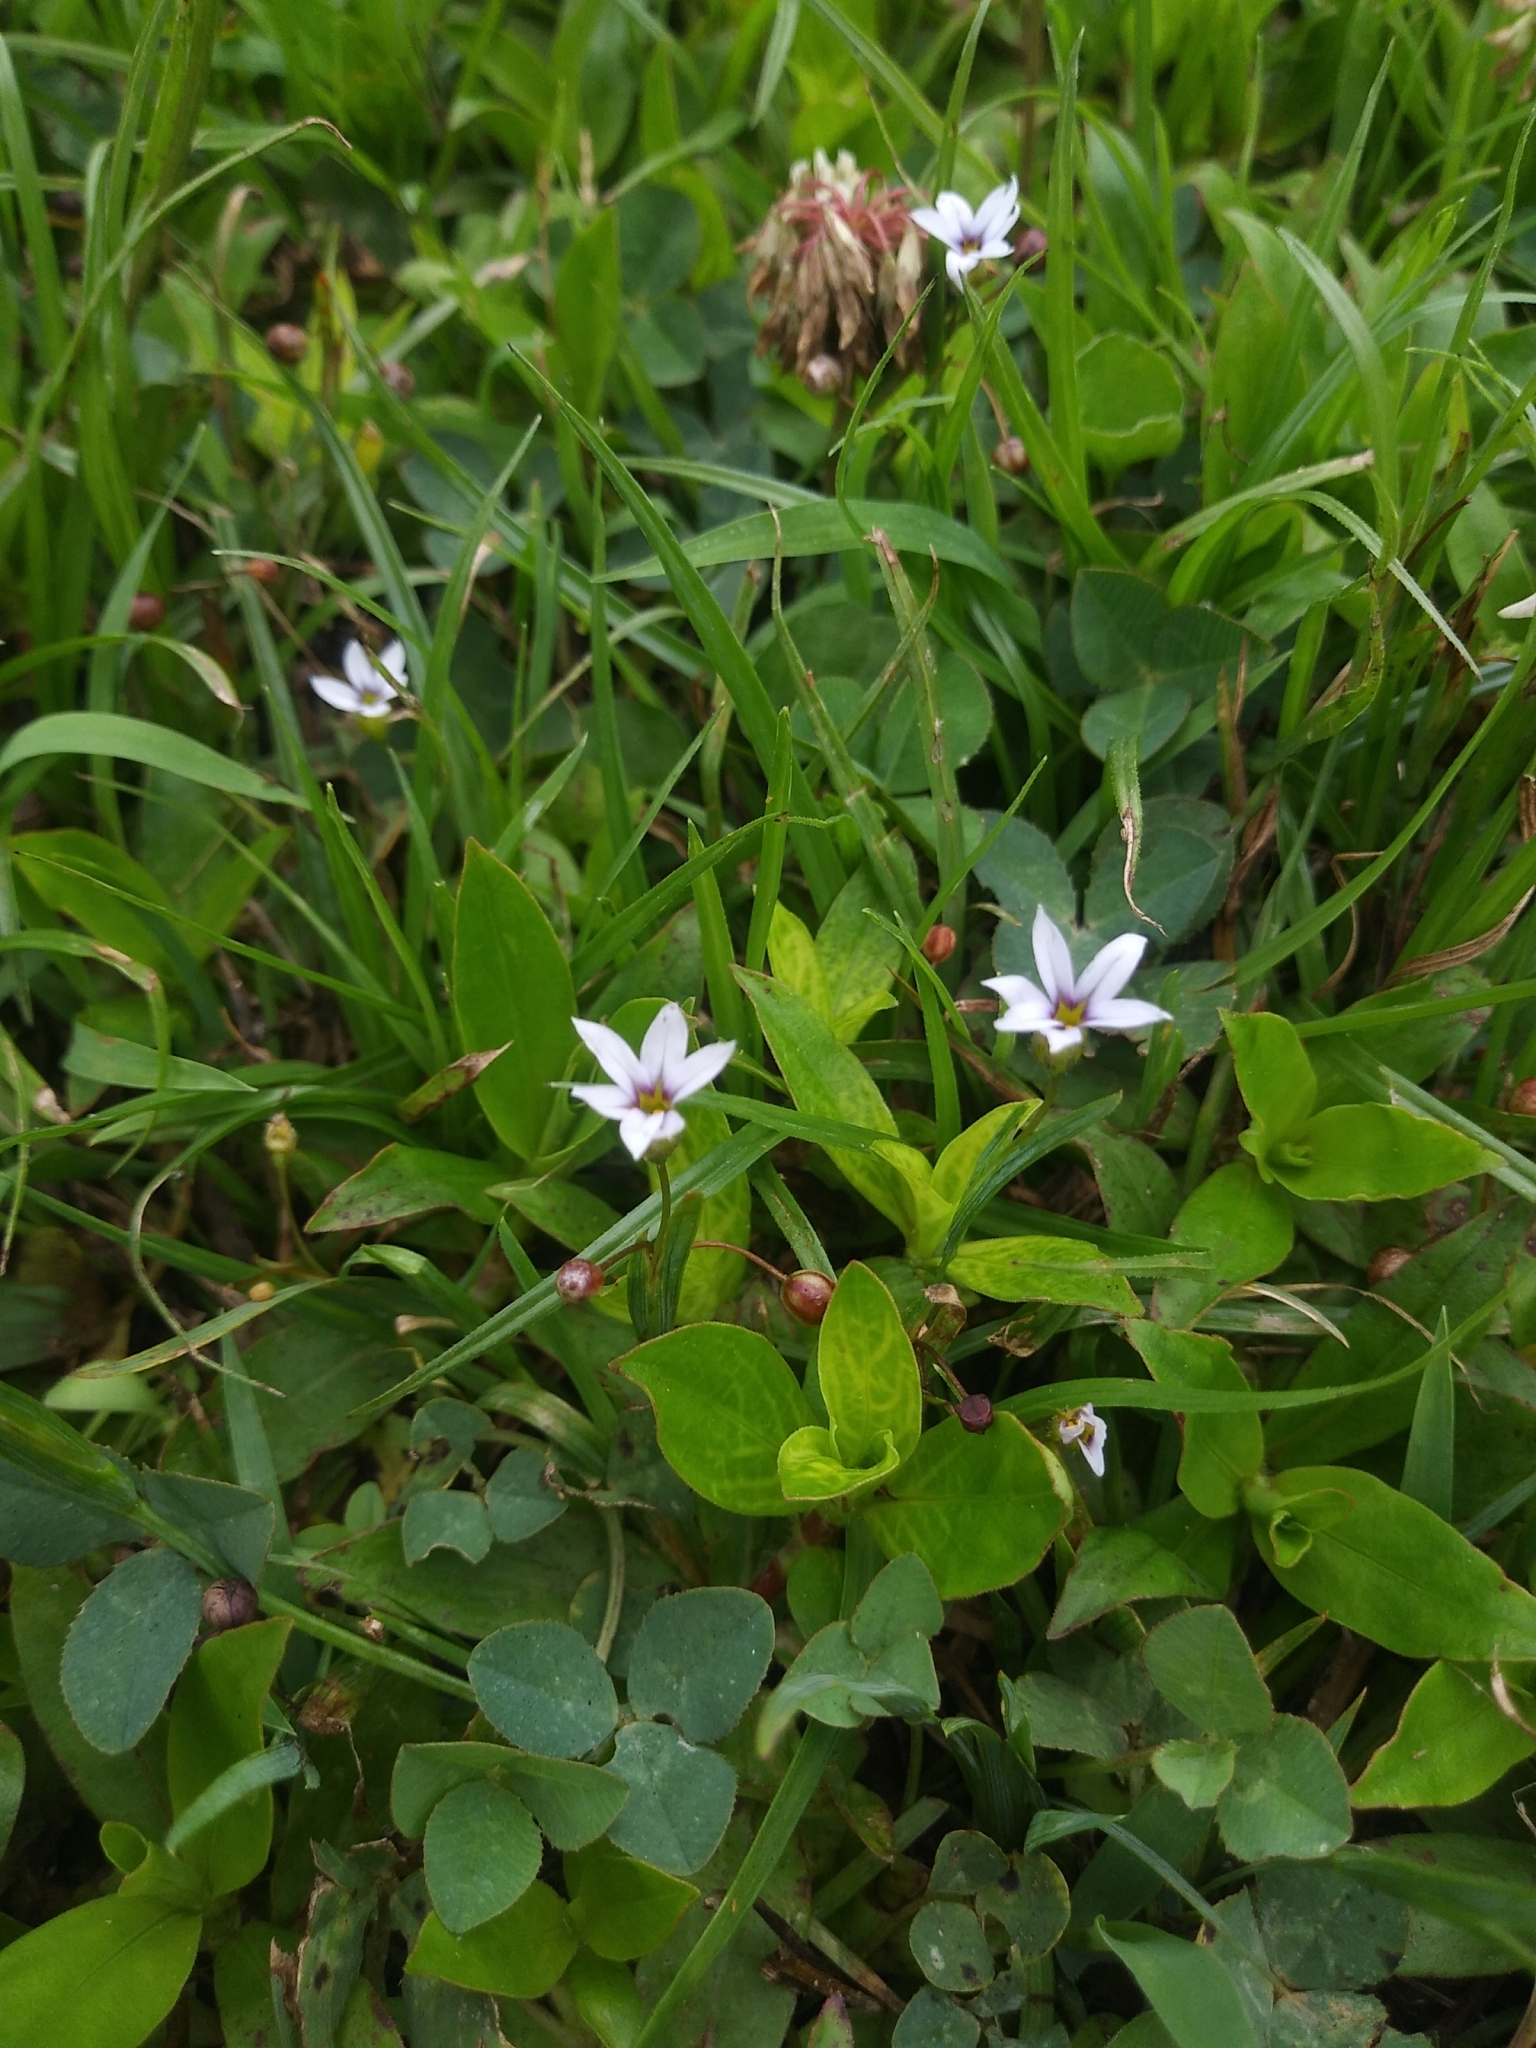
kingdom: Plantae
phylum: Tracheophyta
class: Liliopsida
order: Asparagales
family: Iridaceae
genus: Sisyrinchium
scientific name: Sisyrinchium micranthum
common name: Bermuda pigroot
